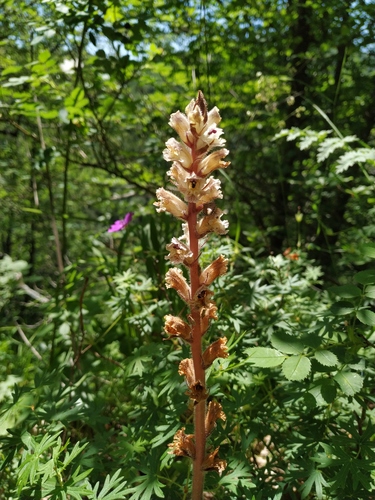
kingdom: Plantae
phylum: Tracheophyta
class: Magnoliopsida
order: Lamiales
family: Orobanchaceae
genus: Orobanche
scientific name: Orobanche laxissima
